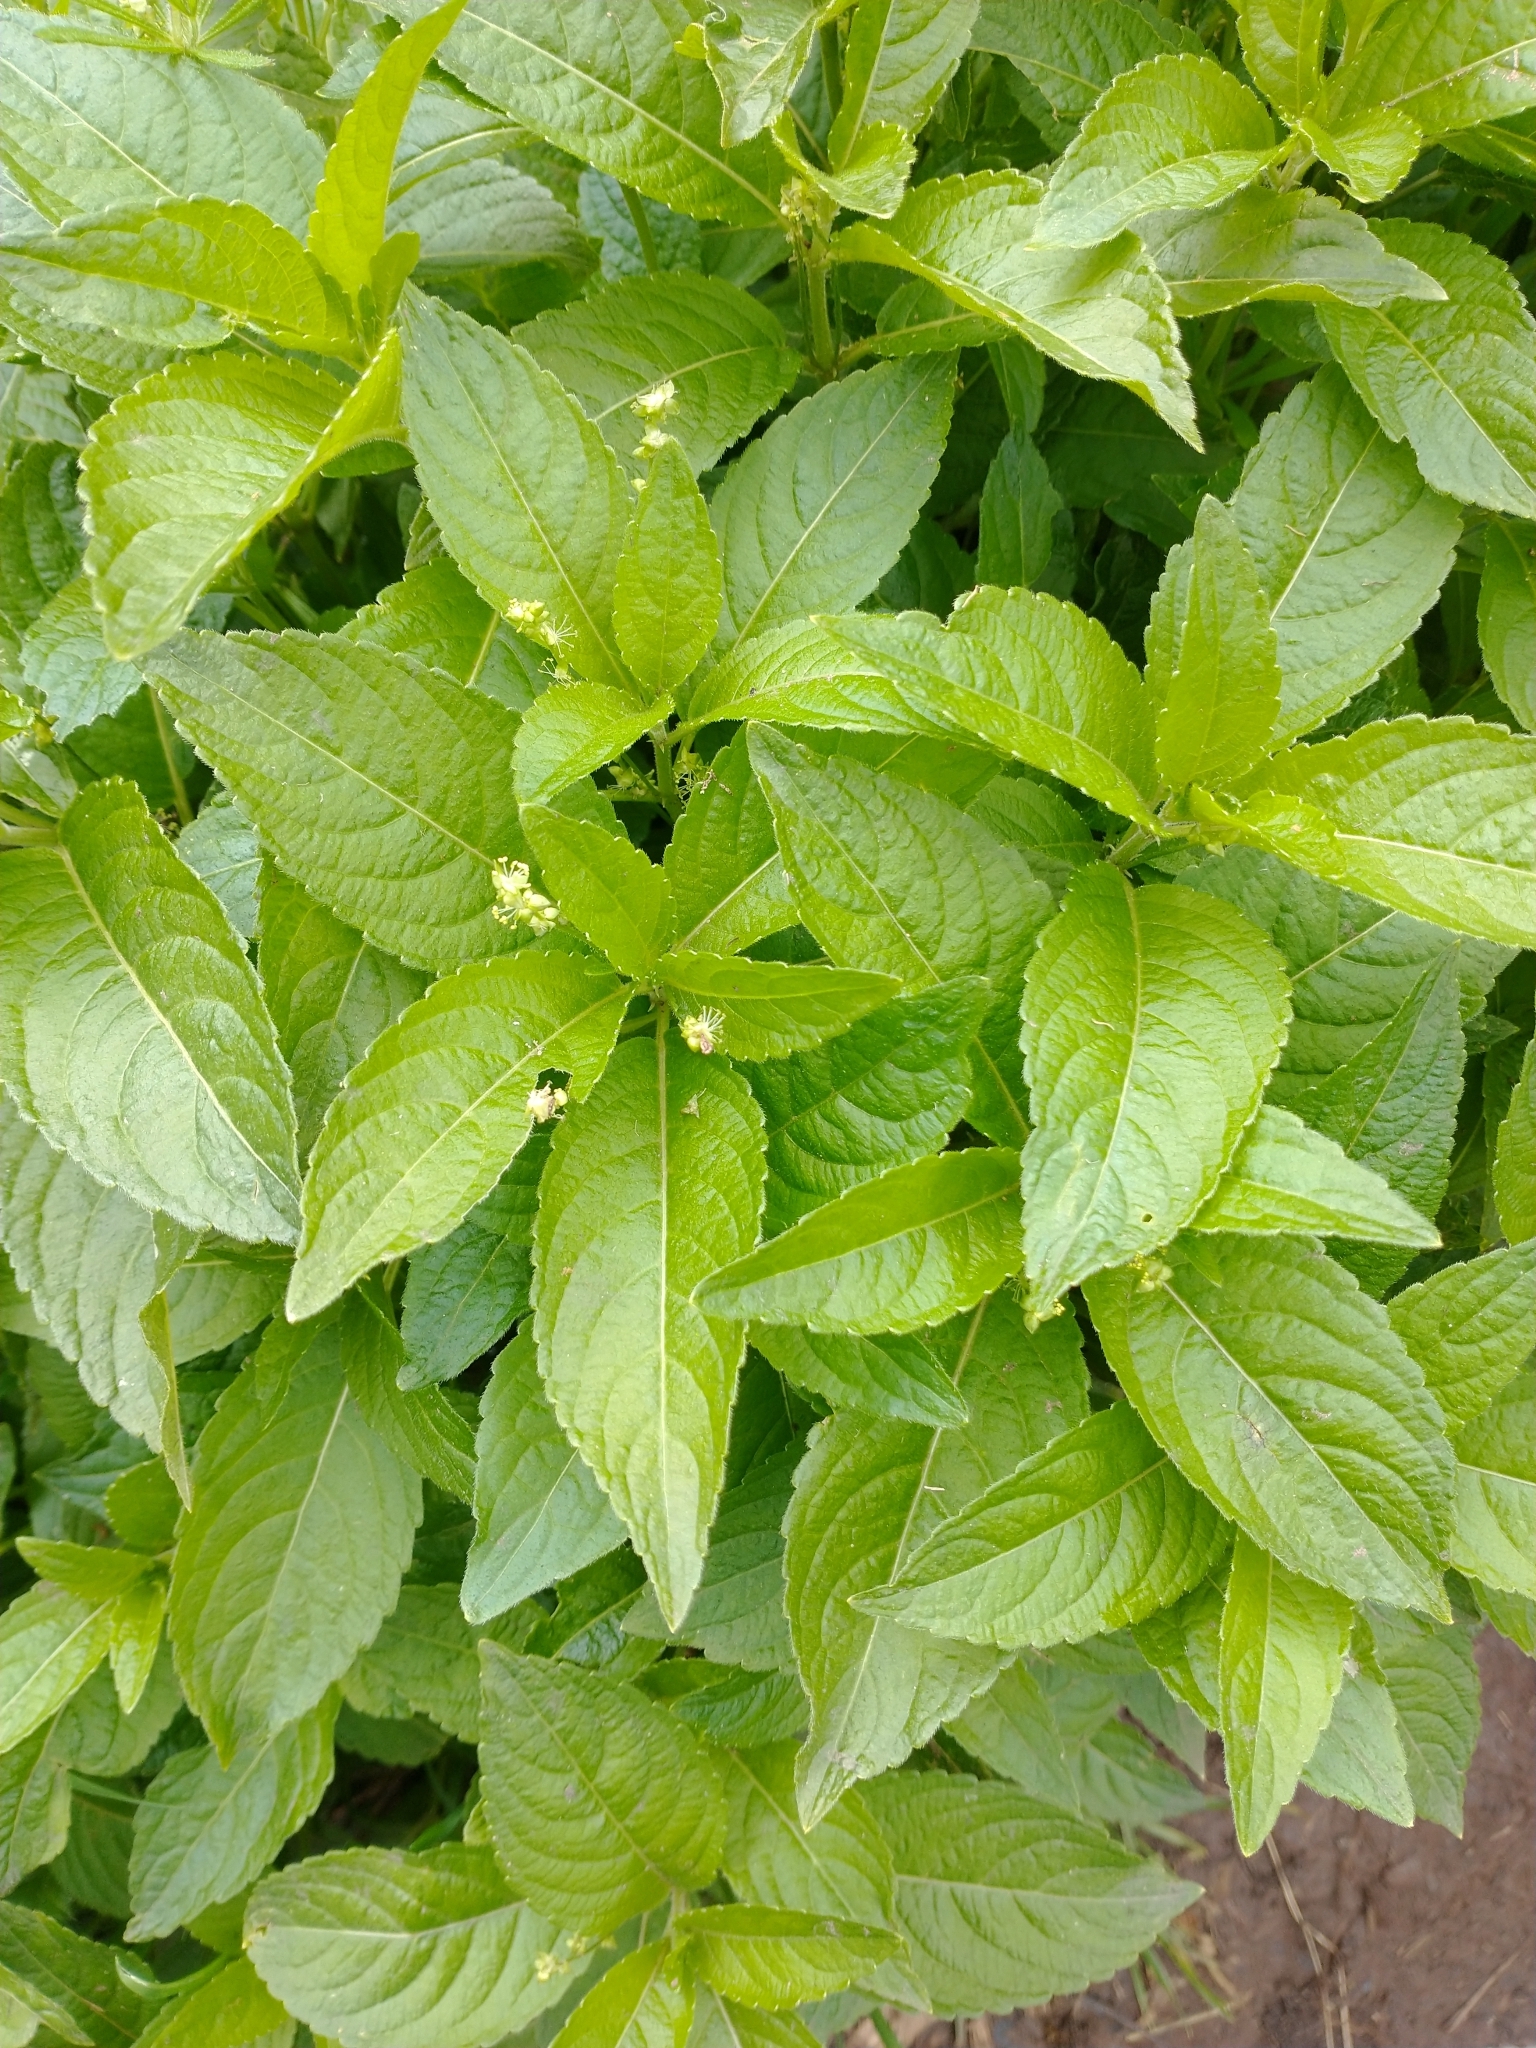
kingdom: Plantae
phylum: Tracheophyta
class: Magnoliopsida
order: Malpighiales
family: Euphorbiaceae
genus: Mercurialis
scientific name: Mercurialis perennis
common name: Dog mercury
